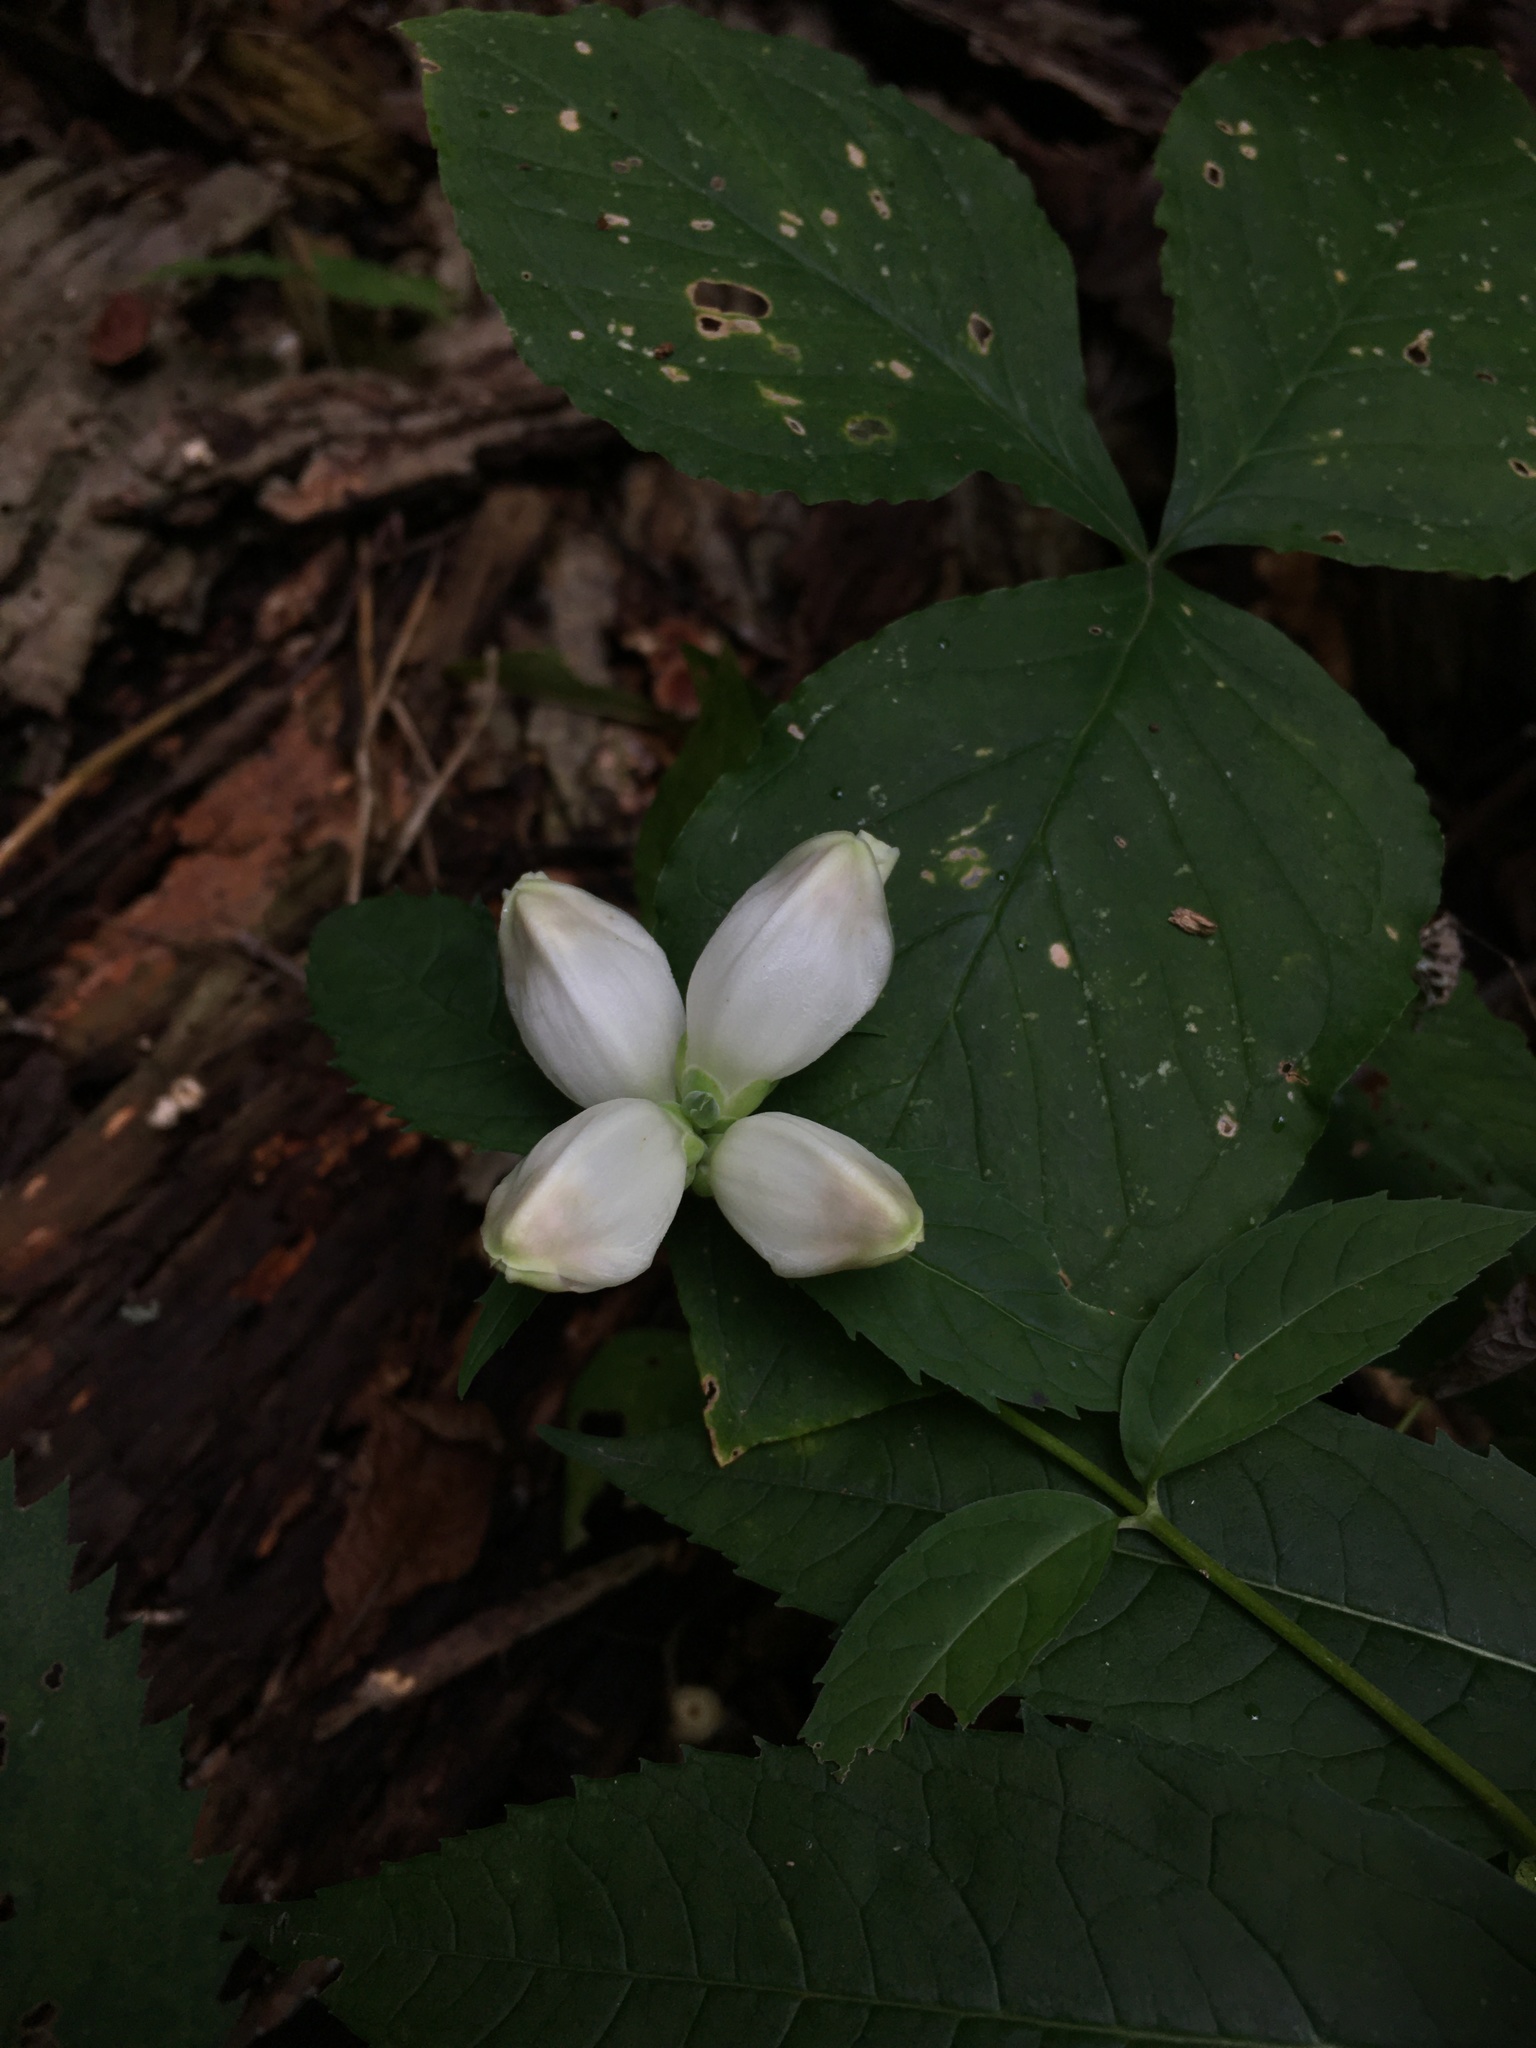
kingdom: Plantae
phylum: Tracheophyta
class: Magnoliopsida
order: Lamiales
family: Plantaginaceae
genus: Chelone
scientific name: Chelone glabra
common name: Snakehead
